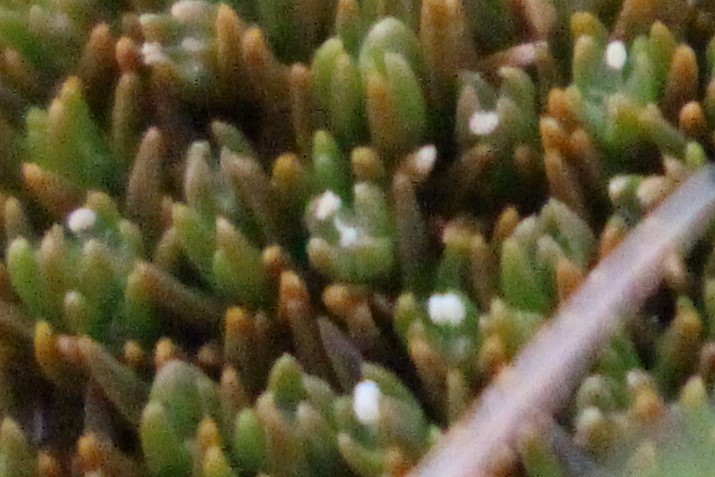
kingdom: Plantae
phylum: Tracheophyta
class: Magnoliopsida
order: Caryophyllales
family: Caryophyllaceae
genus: Scleranthus
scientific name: Scleranthus uniflorus
